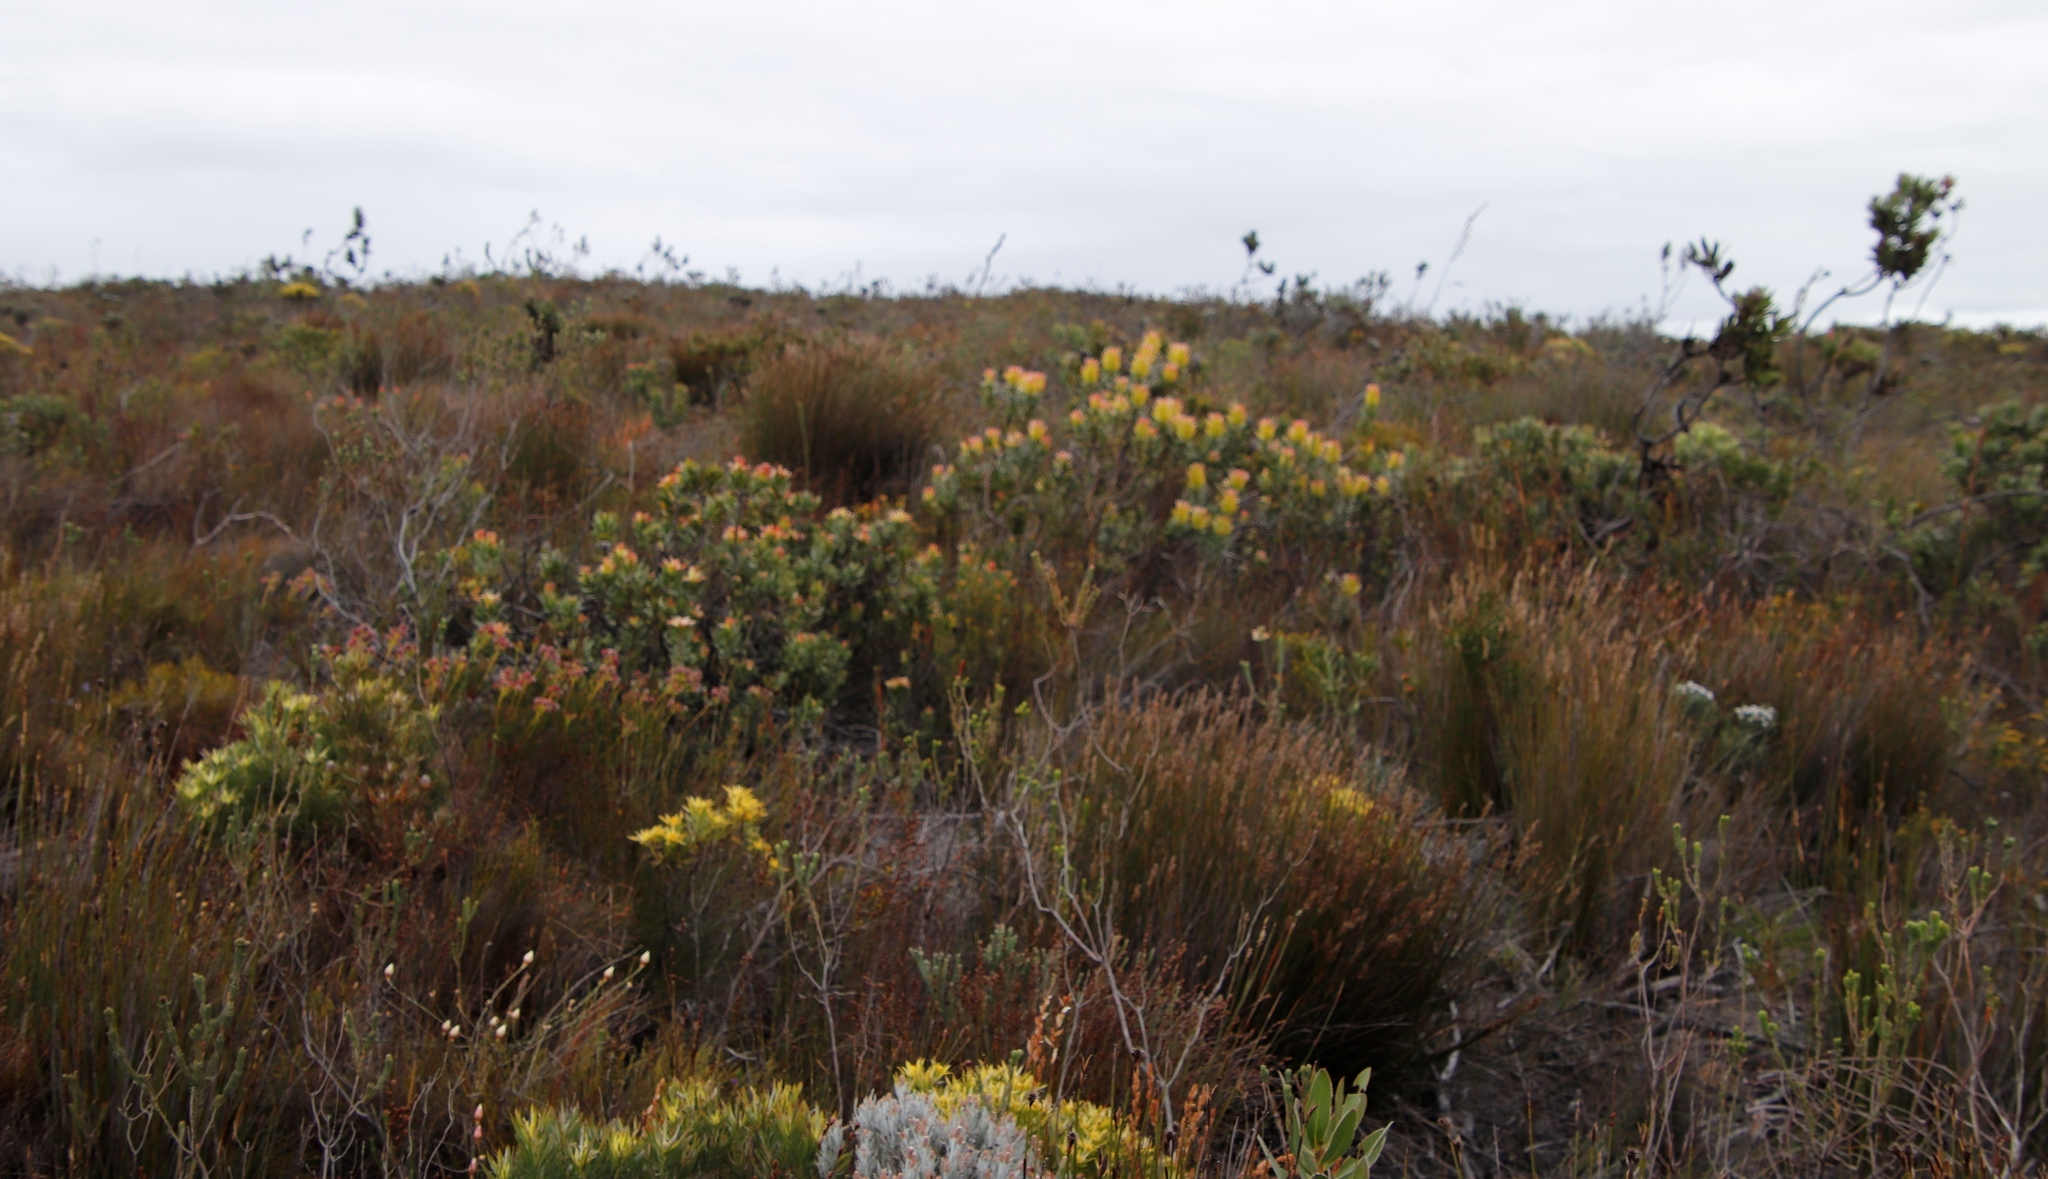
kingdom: Plantae
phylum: Tracheophyta
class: Magnoliopsida
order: Proteales
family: Proteaceae
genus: Mimetes
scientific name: Mimetes cucullatus
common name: Common pagoda
